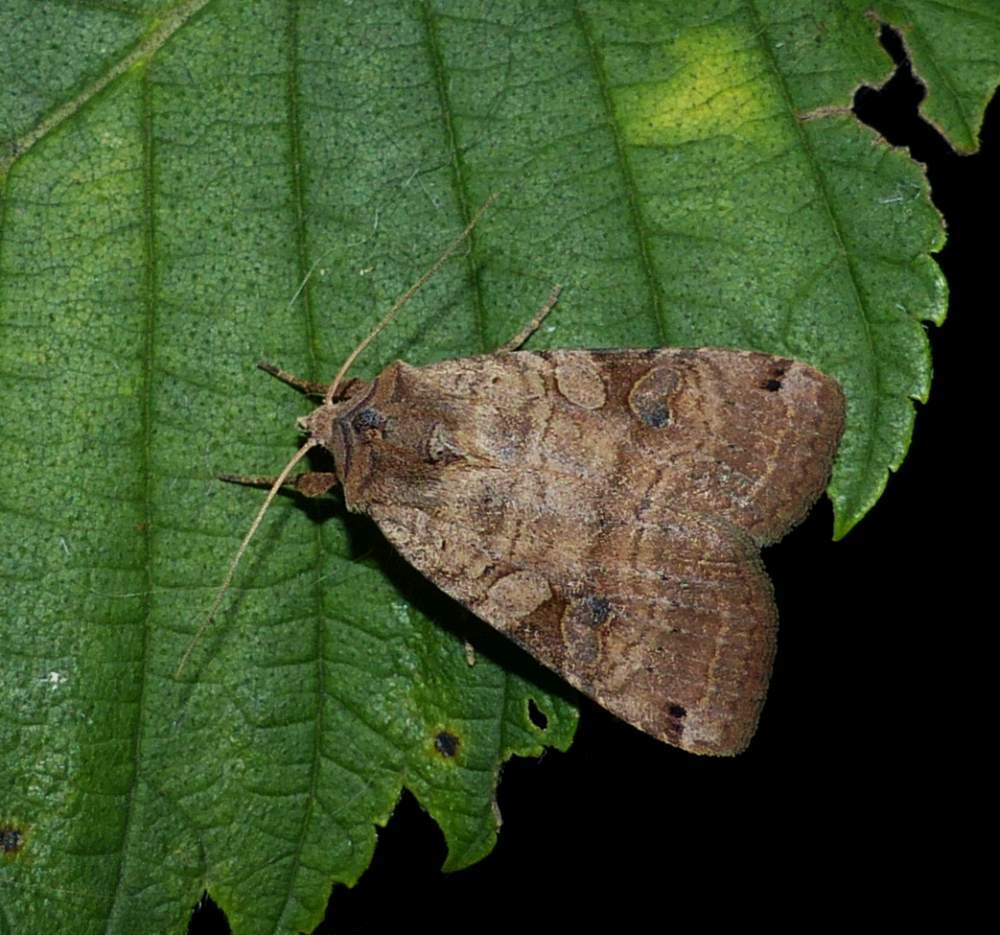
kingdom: Animalia
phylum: Arthropoda
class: Insecta
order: Lepidoptera
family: Noctuidae
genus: Xestia
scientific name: Xestia smithii
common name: Smith's dart
